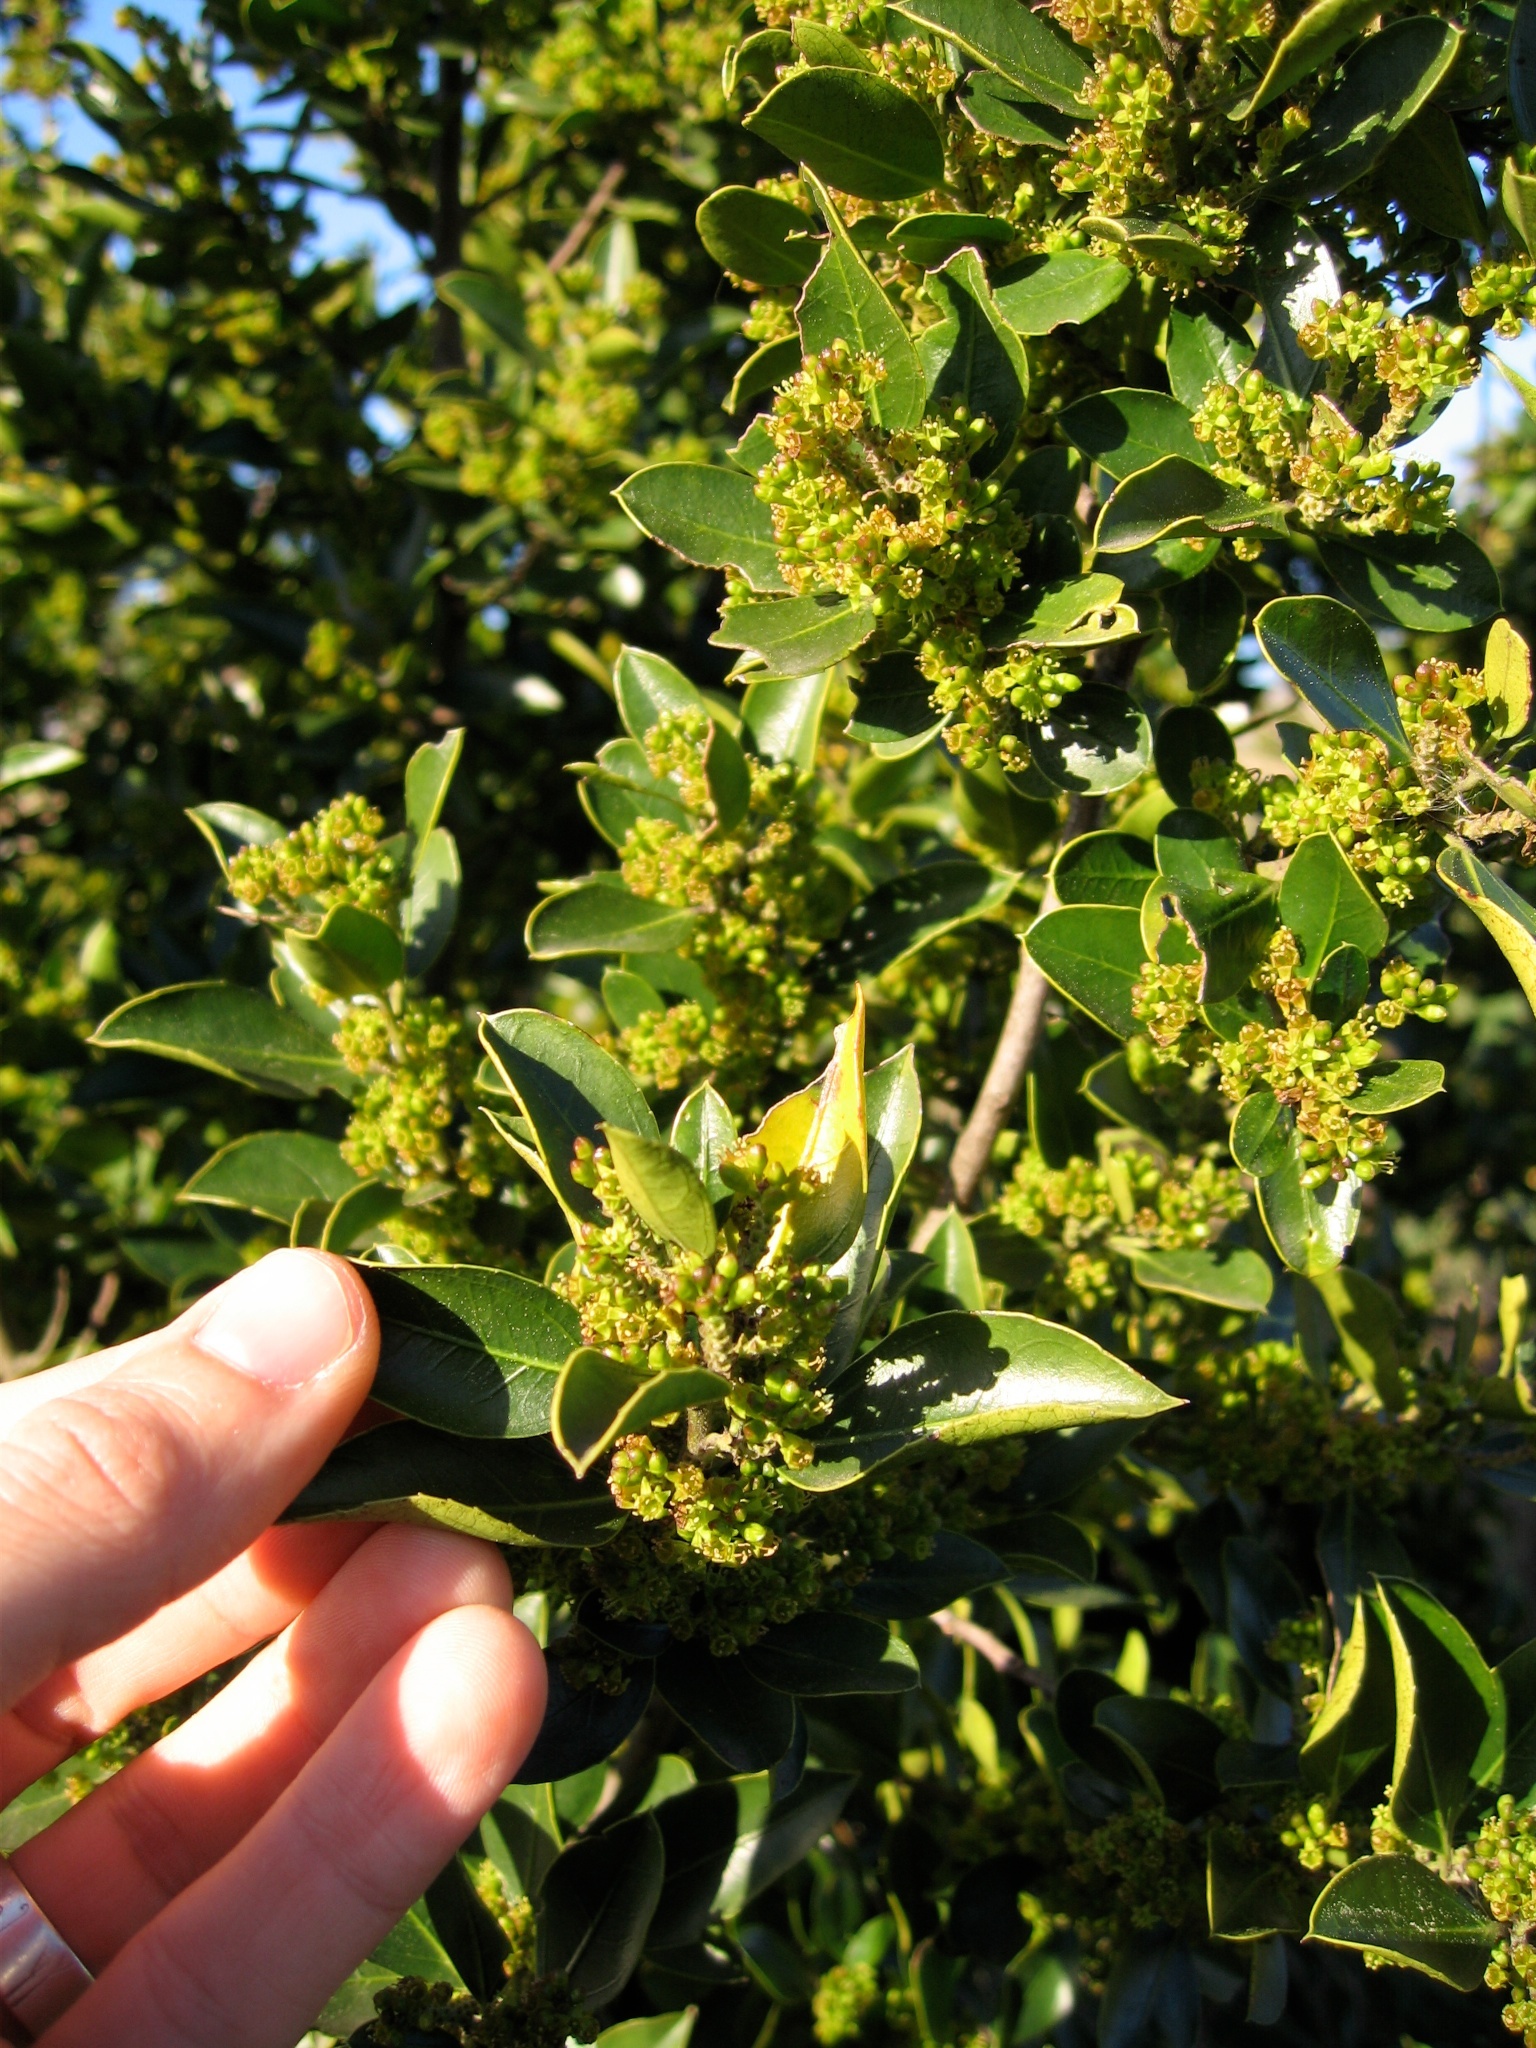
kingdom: Plantae
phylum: Tracheophyta
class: Magnoliopsida
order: Rosales
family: Rhamnaceae
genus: Rhamnus
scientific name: Rhamnus alaternus
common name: Mediterranean buckthorn
